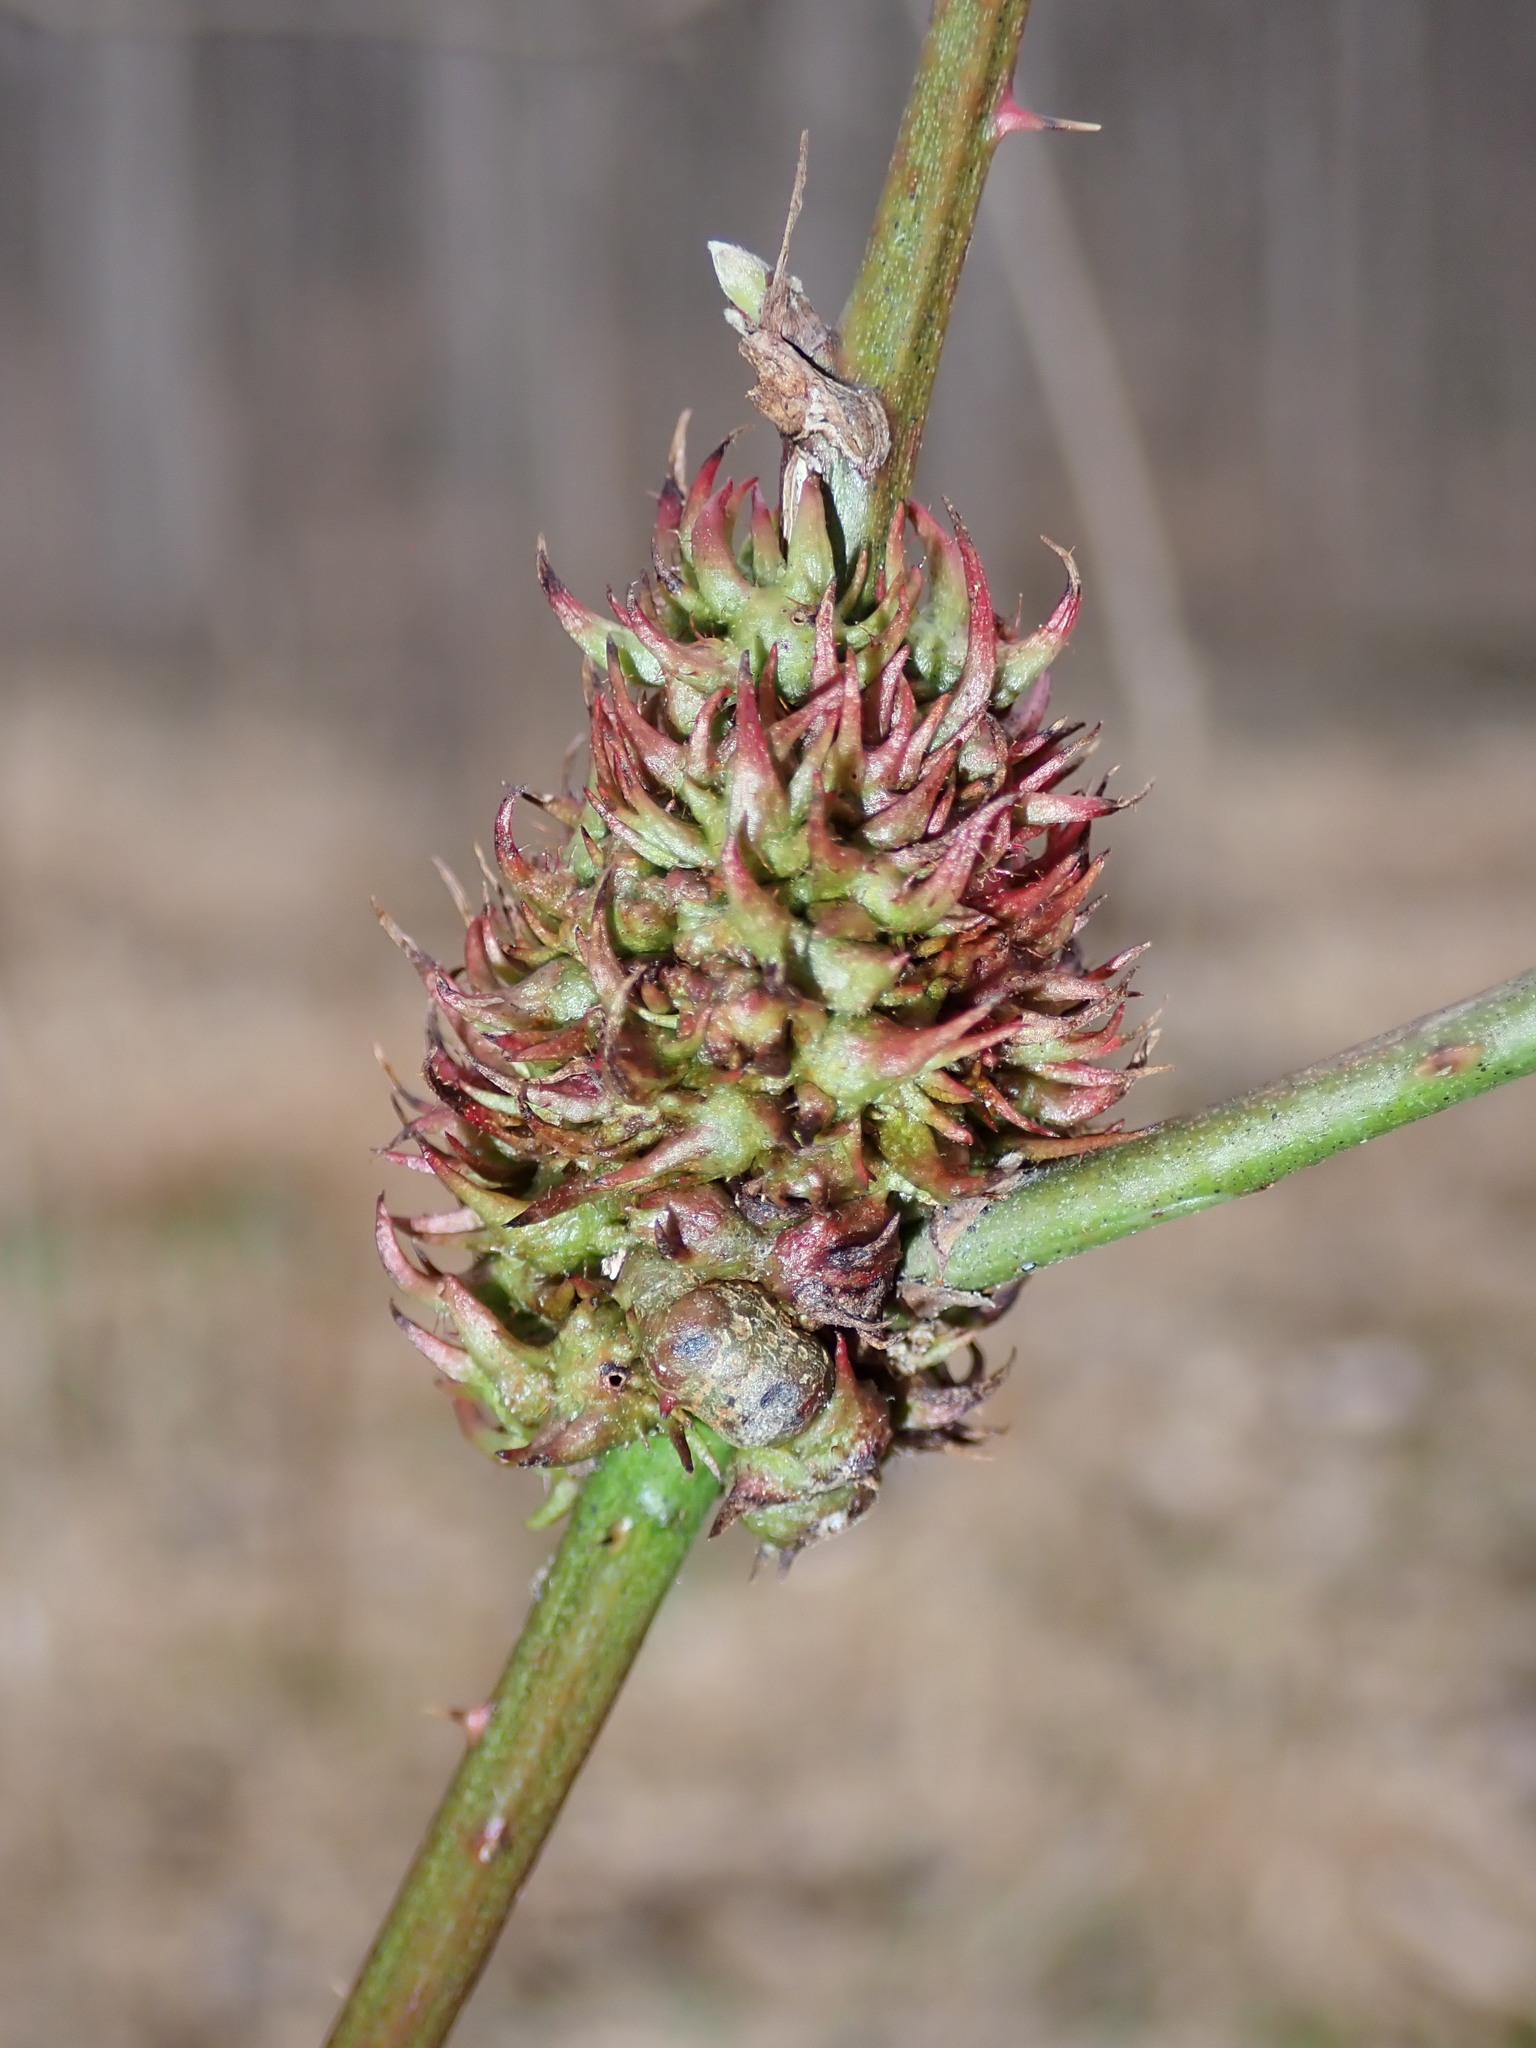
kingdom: Animalia
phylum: Arthropoda
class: Insecta
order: Hymenoptera
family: Cynipidae
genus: Diastrophus
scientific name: Diastrophus
